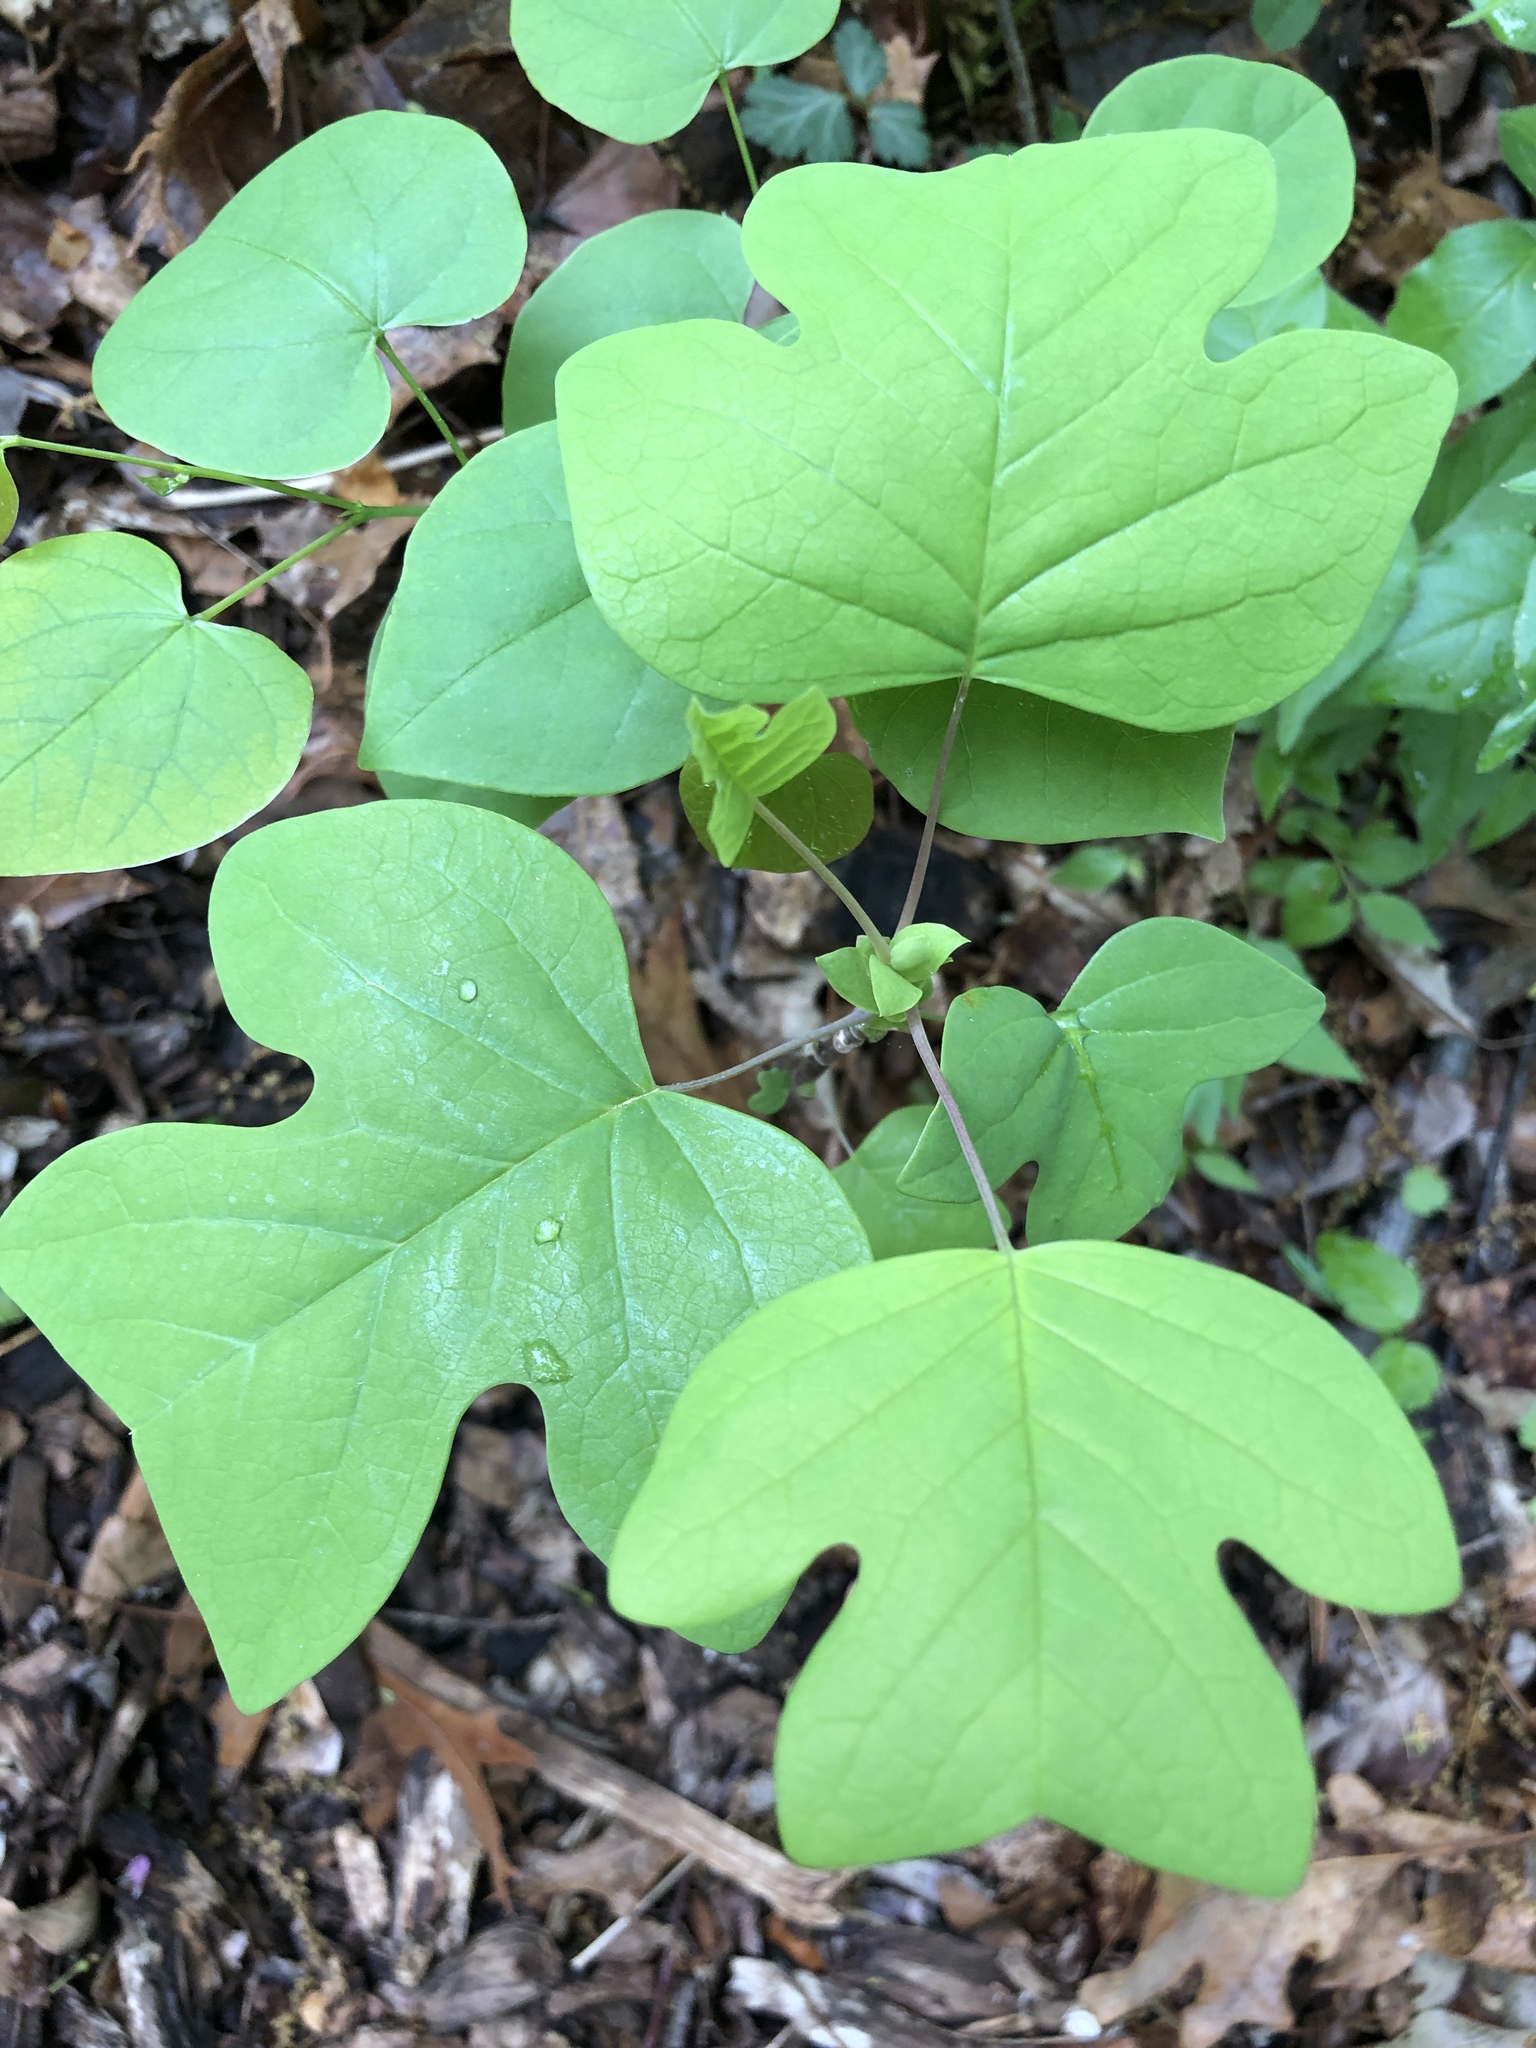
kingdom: Plantae
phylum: Tracheophyta
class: Magnoliopsida
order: Magnoliales
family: Magnoliaceae
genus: Liriodendron
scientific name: Liriodendron tulipifera
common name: Tulip tree
